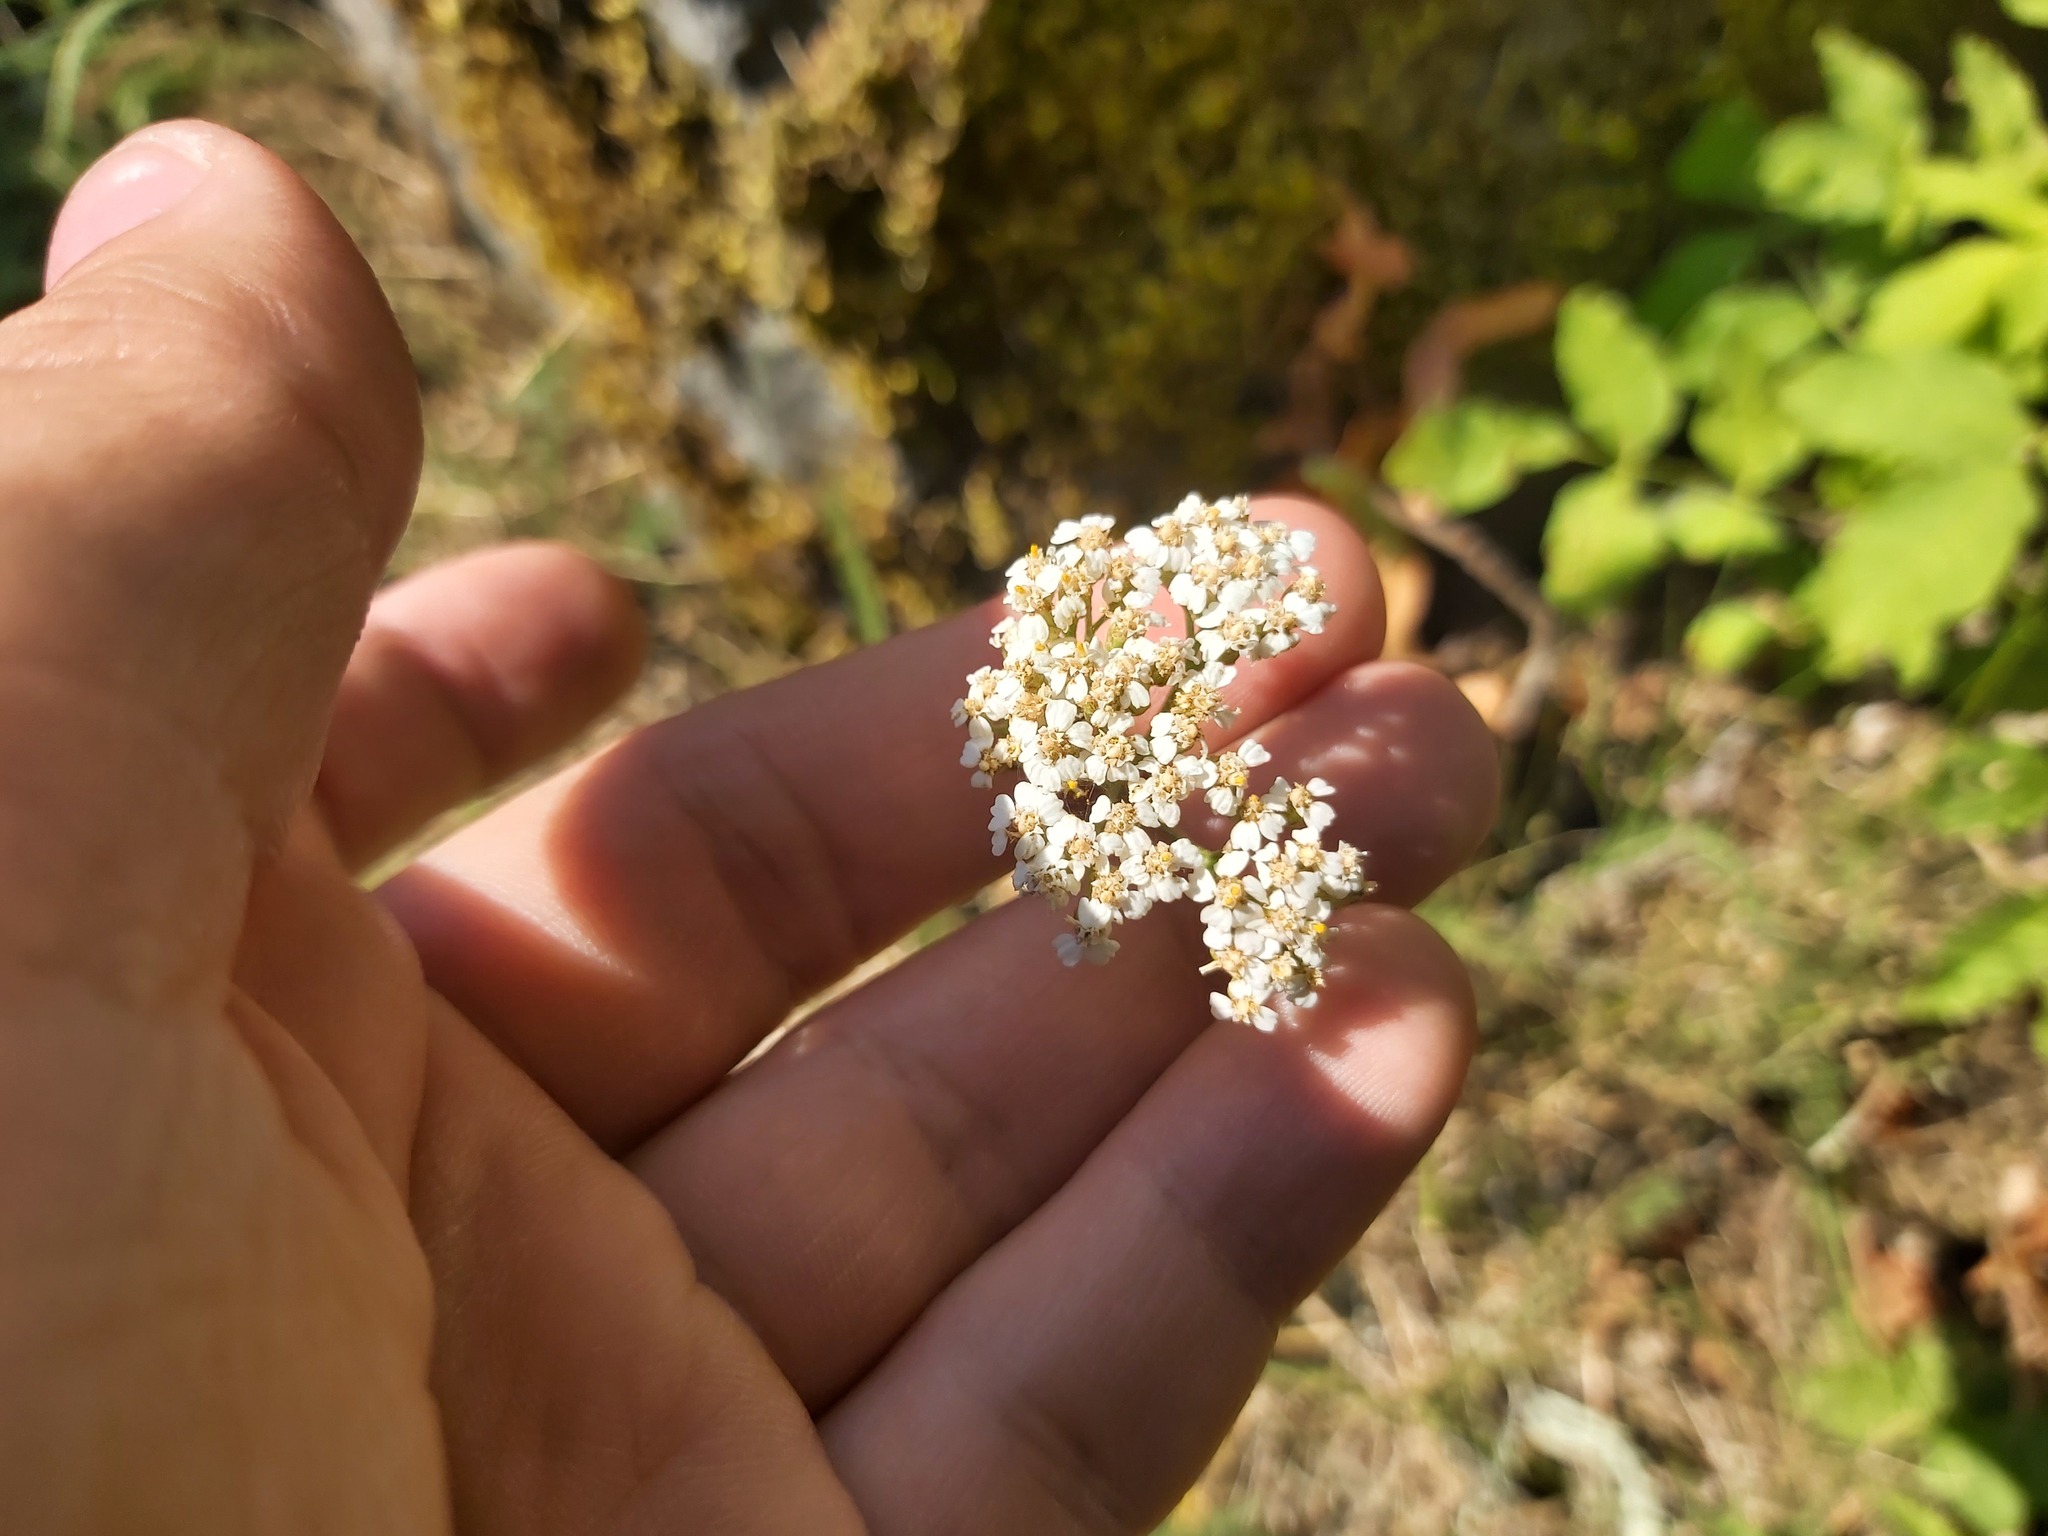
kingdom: Plantae
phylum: Tracheophyta
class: Magnoliopsida
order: Asterales
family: Asteraceae
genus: Achillea
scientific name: Achillea millefolium
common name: Yarrow
